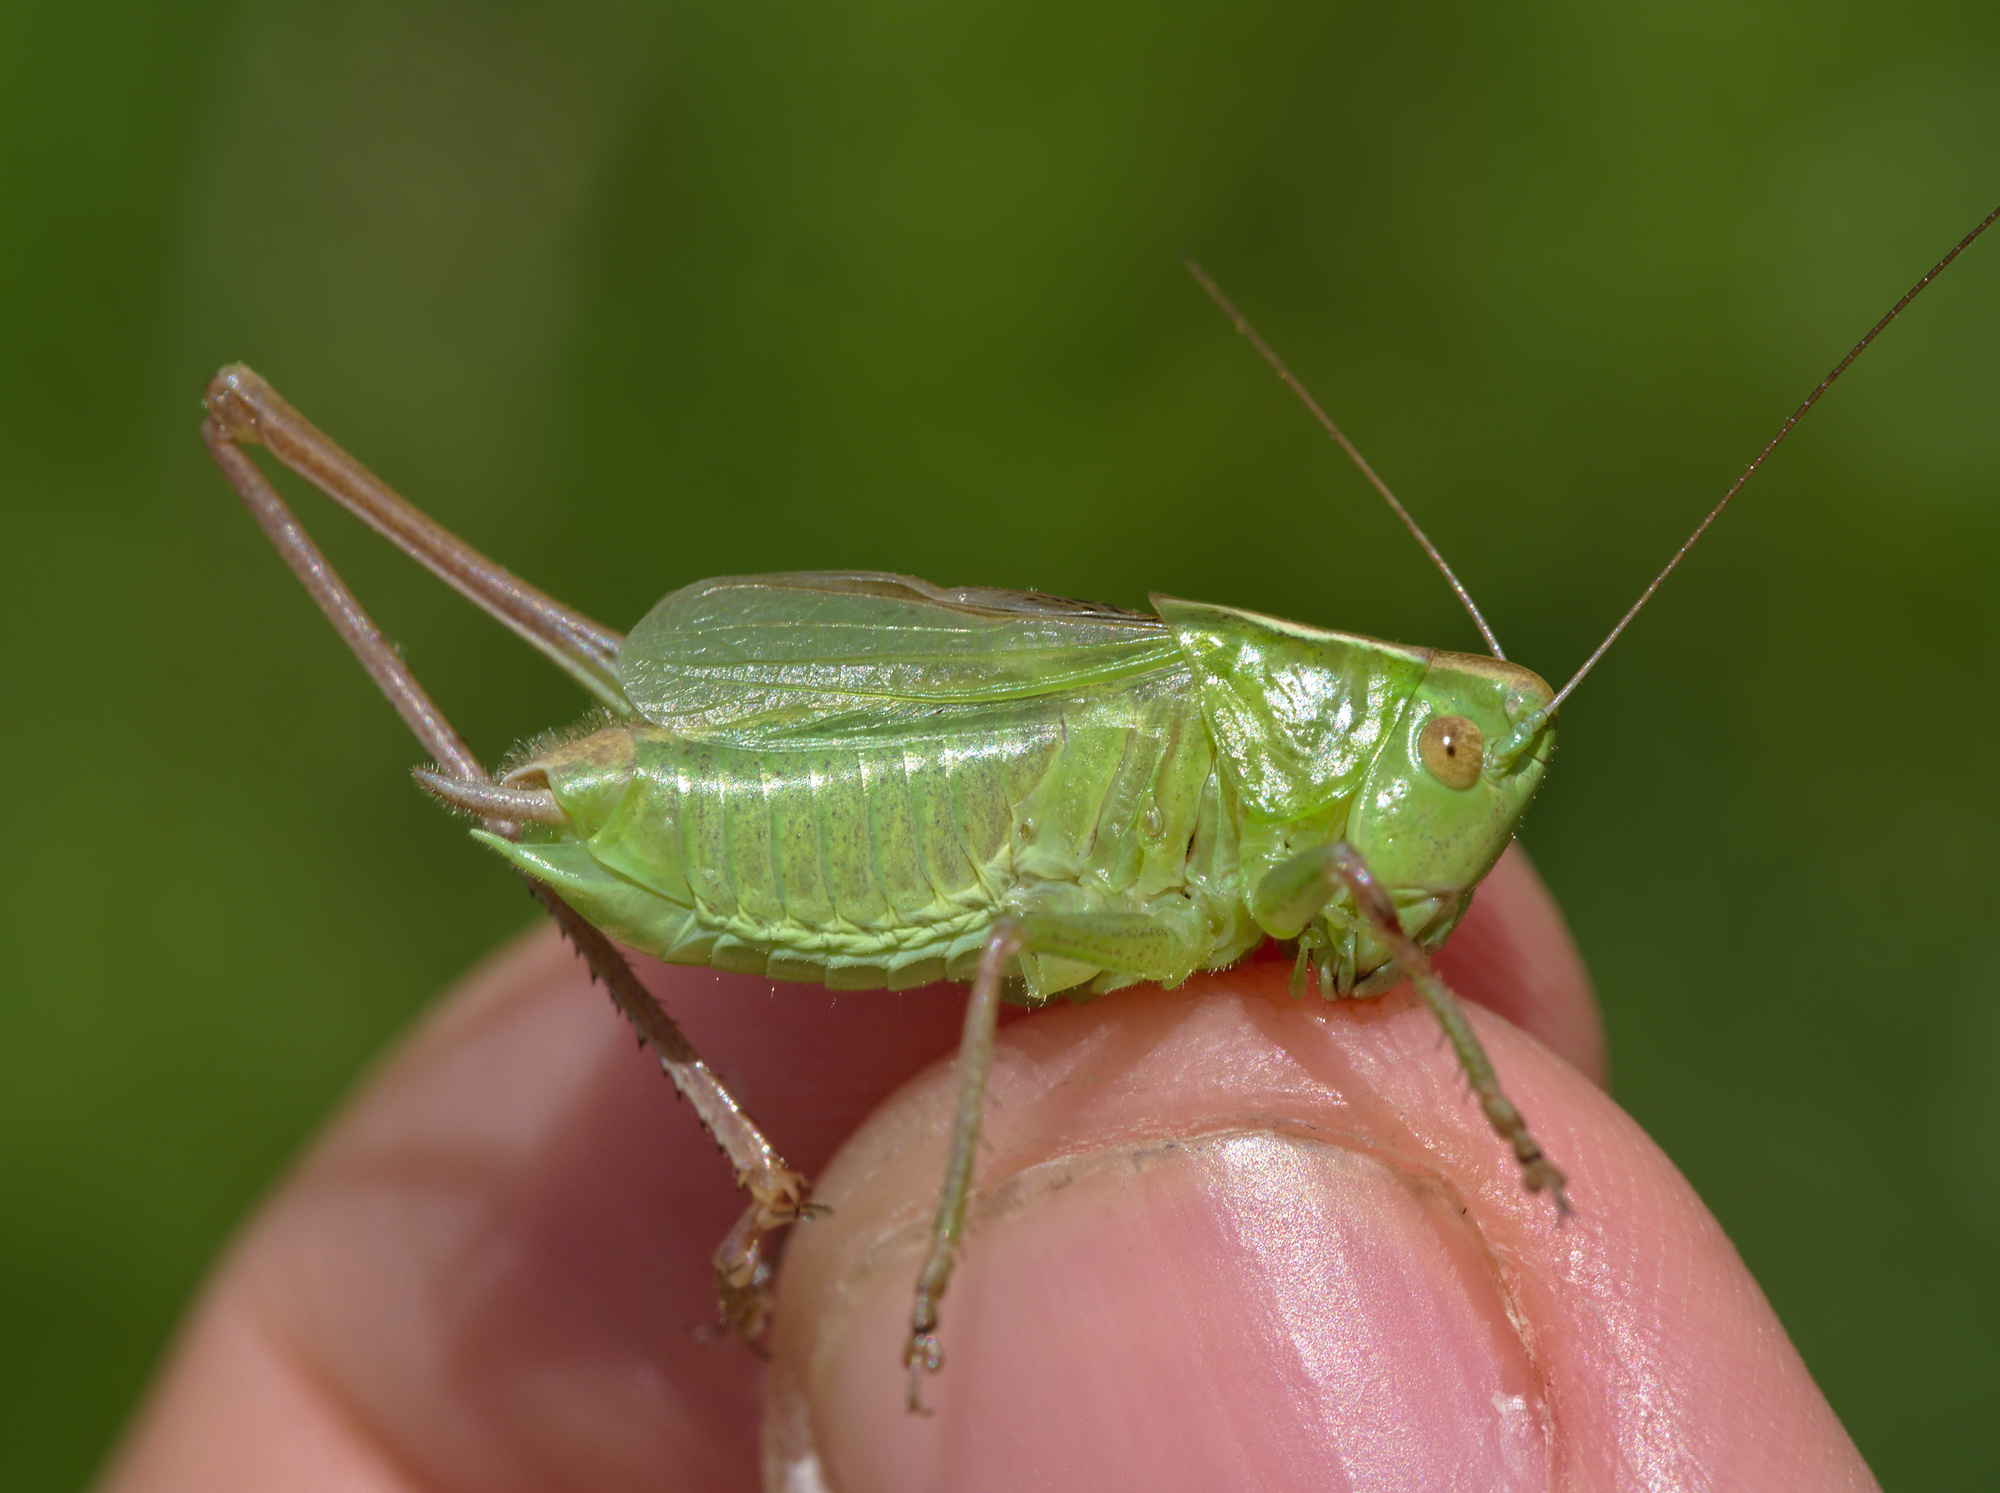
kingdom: Animalia
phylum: Arthropoda
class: Insecta
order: Orthoptera
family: Tettigoniidae
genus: Bicolorana
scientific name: Bicolorana bicolor
